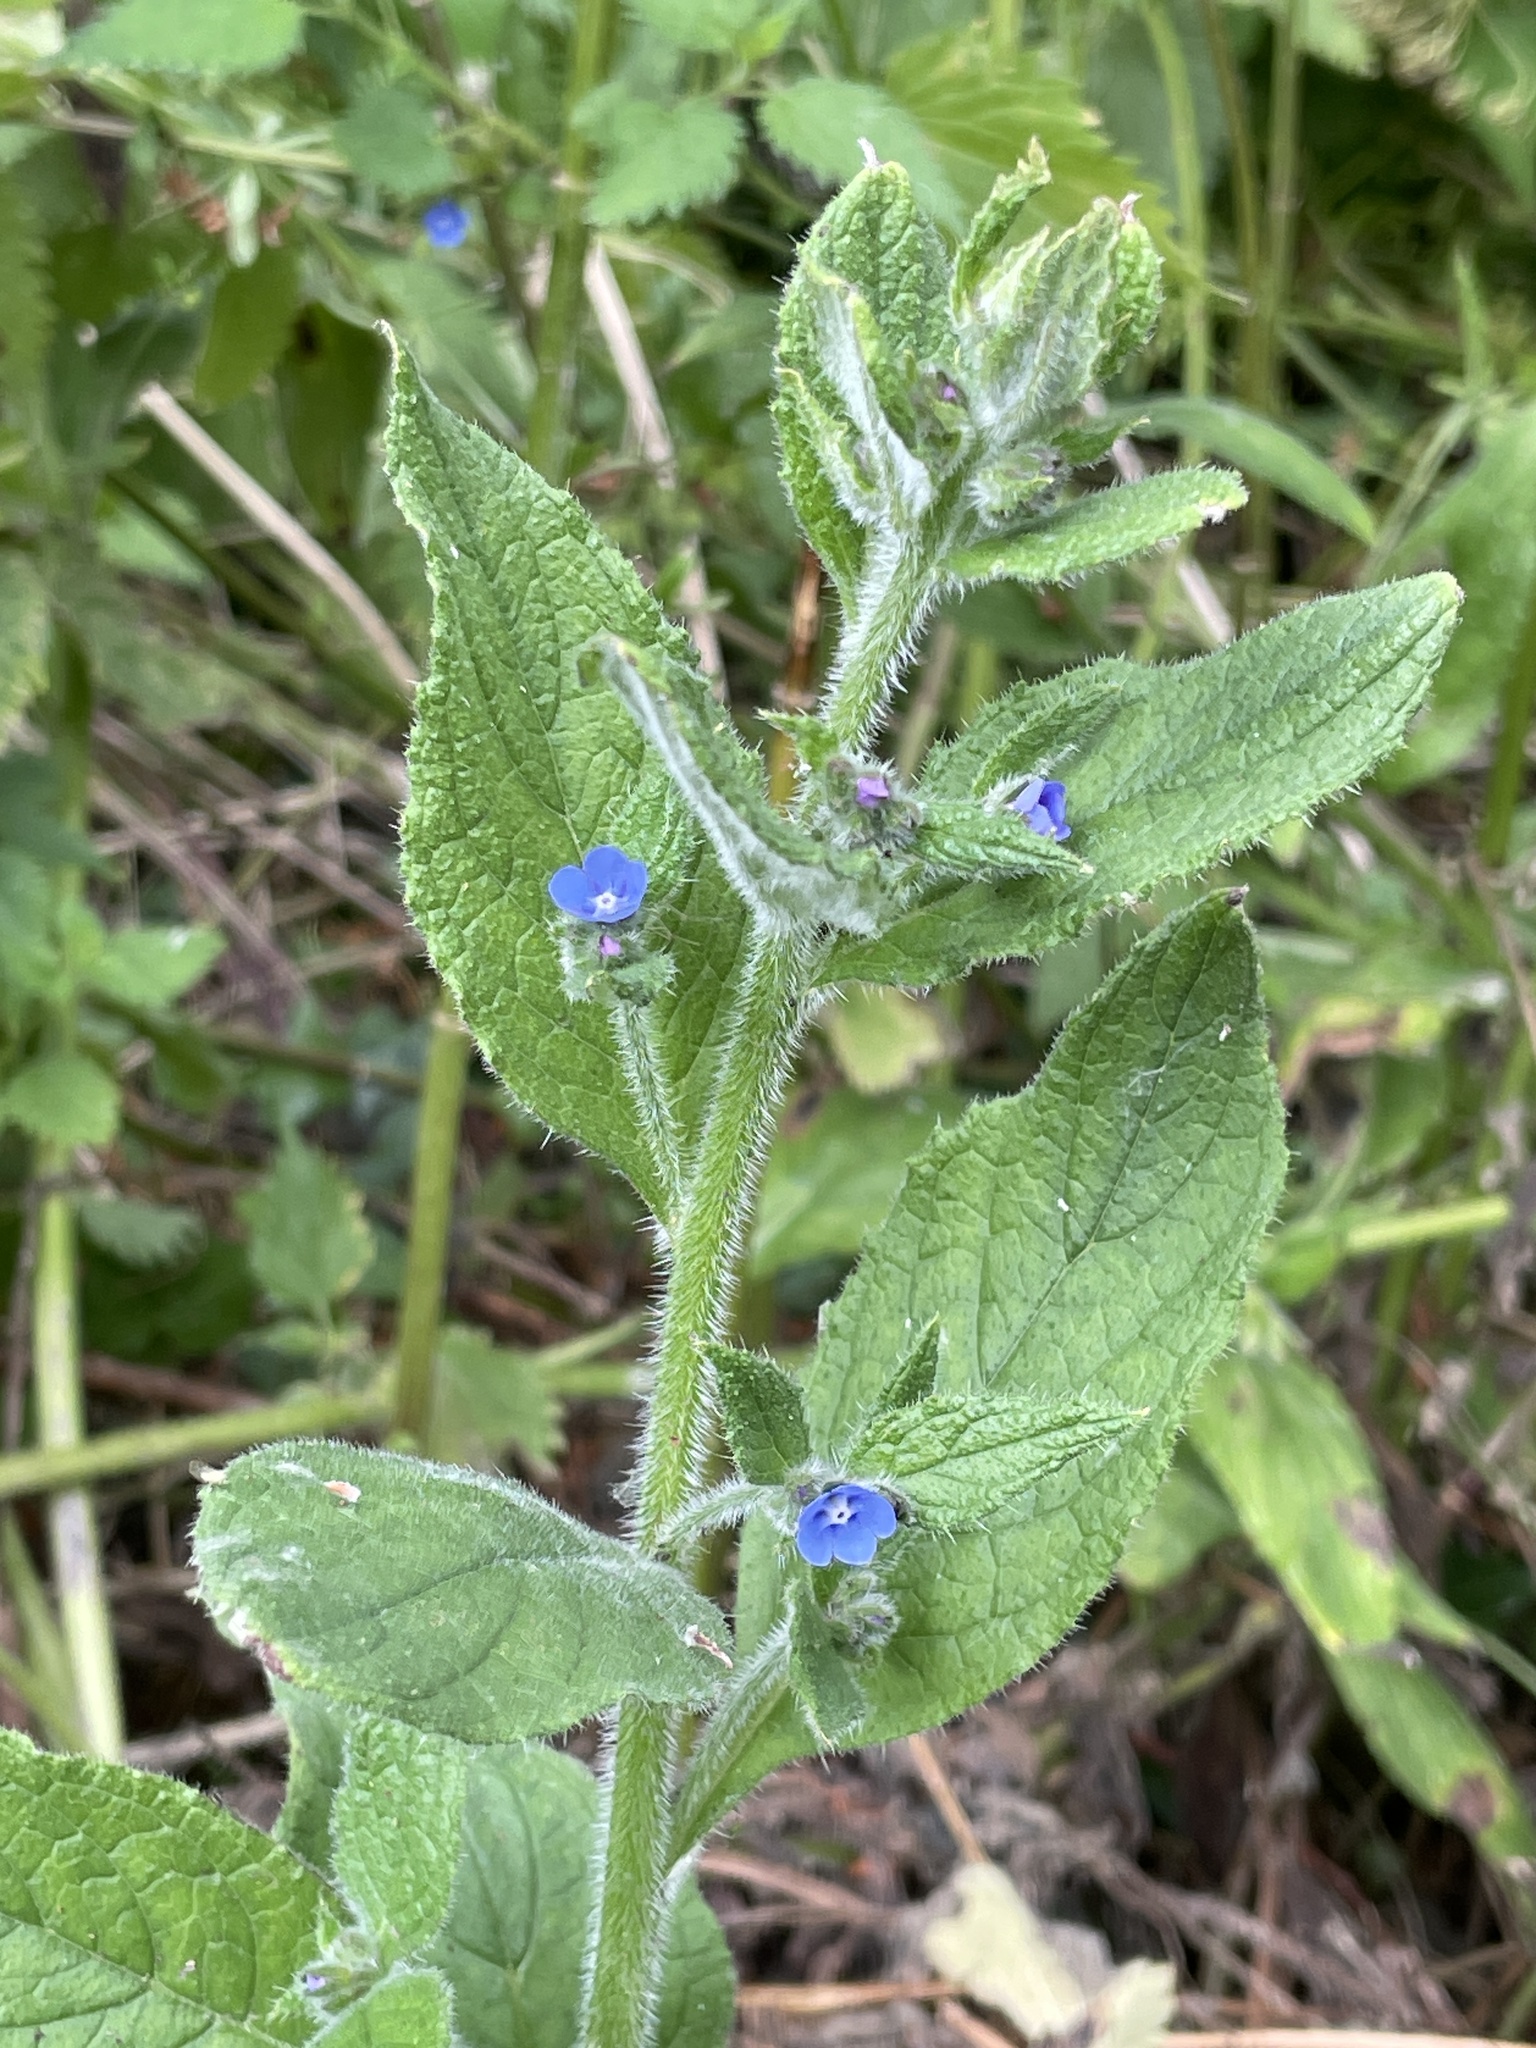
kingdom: Plantae
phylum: Tracheophyta
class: Magnoliopsida
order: Boraginales
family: Boraginaceae
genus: Pentaglottis
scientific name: Pentaglottis sempervirens
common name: Green alkanet
